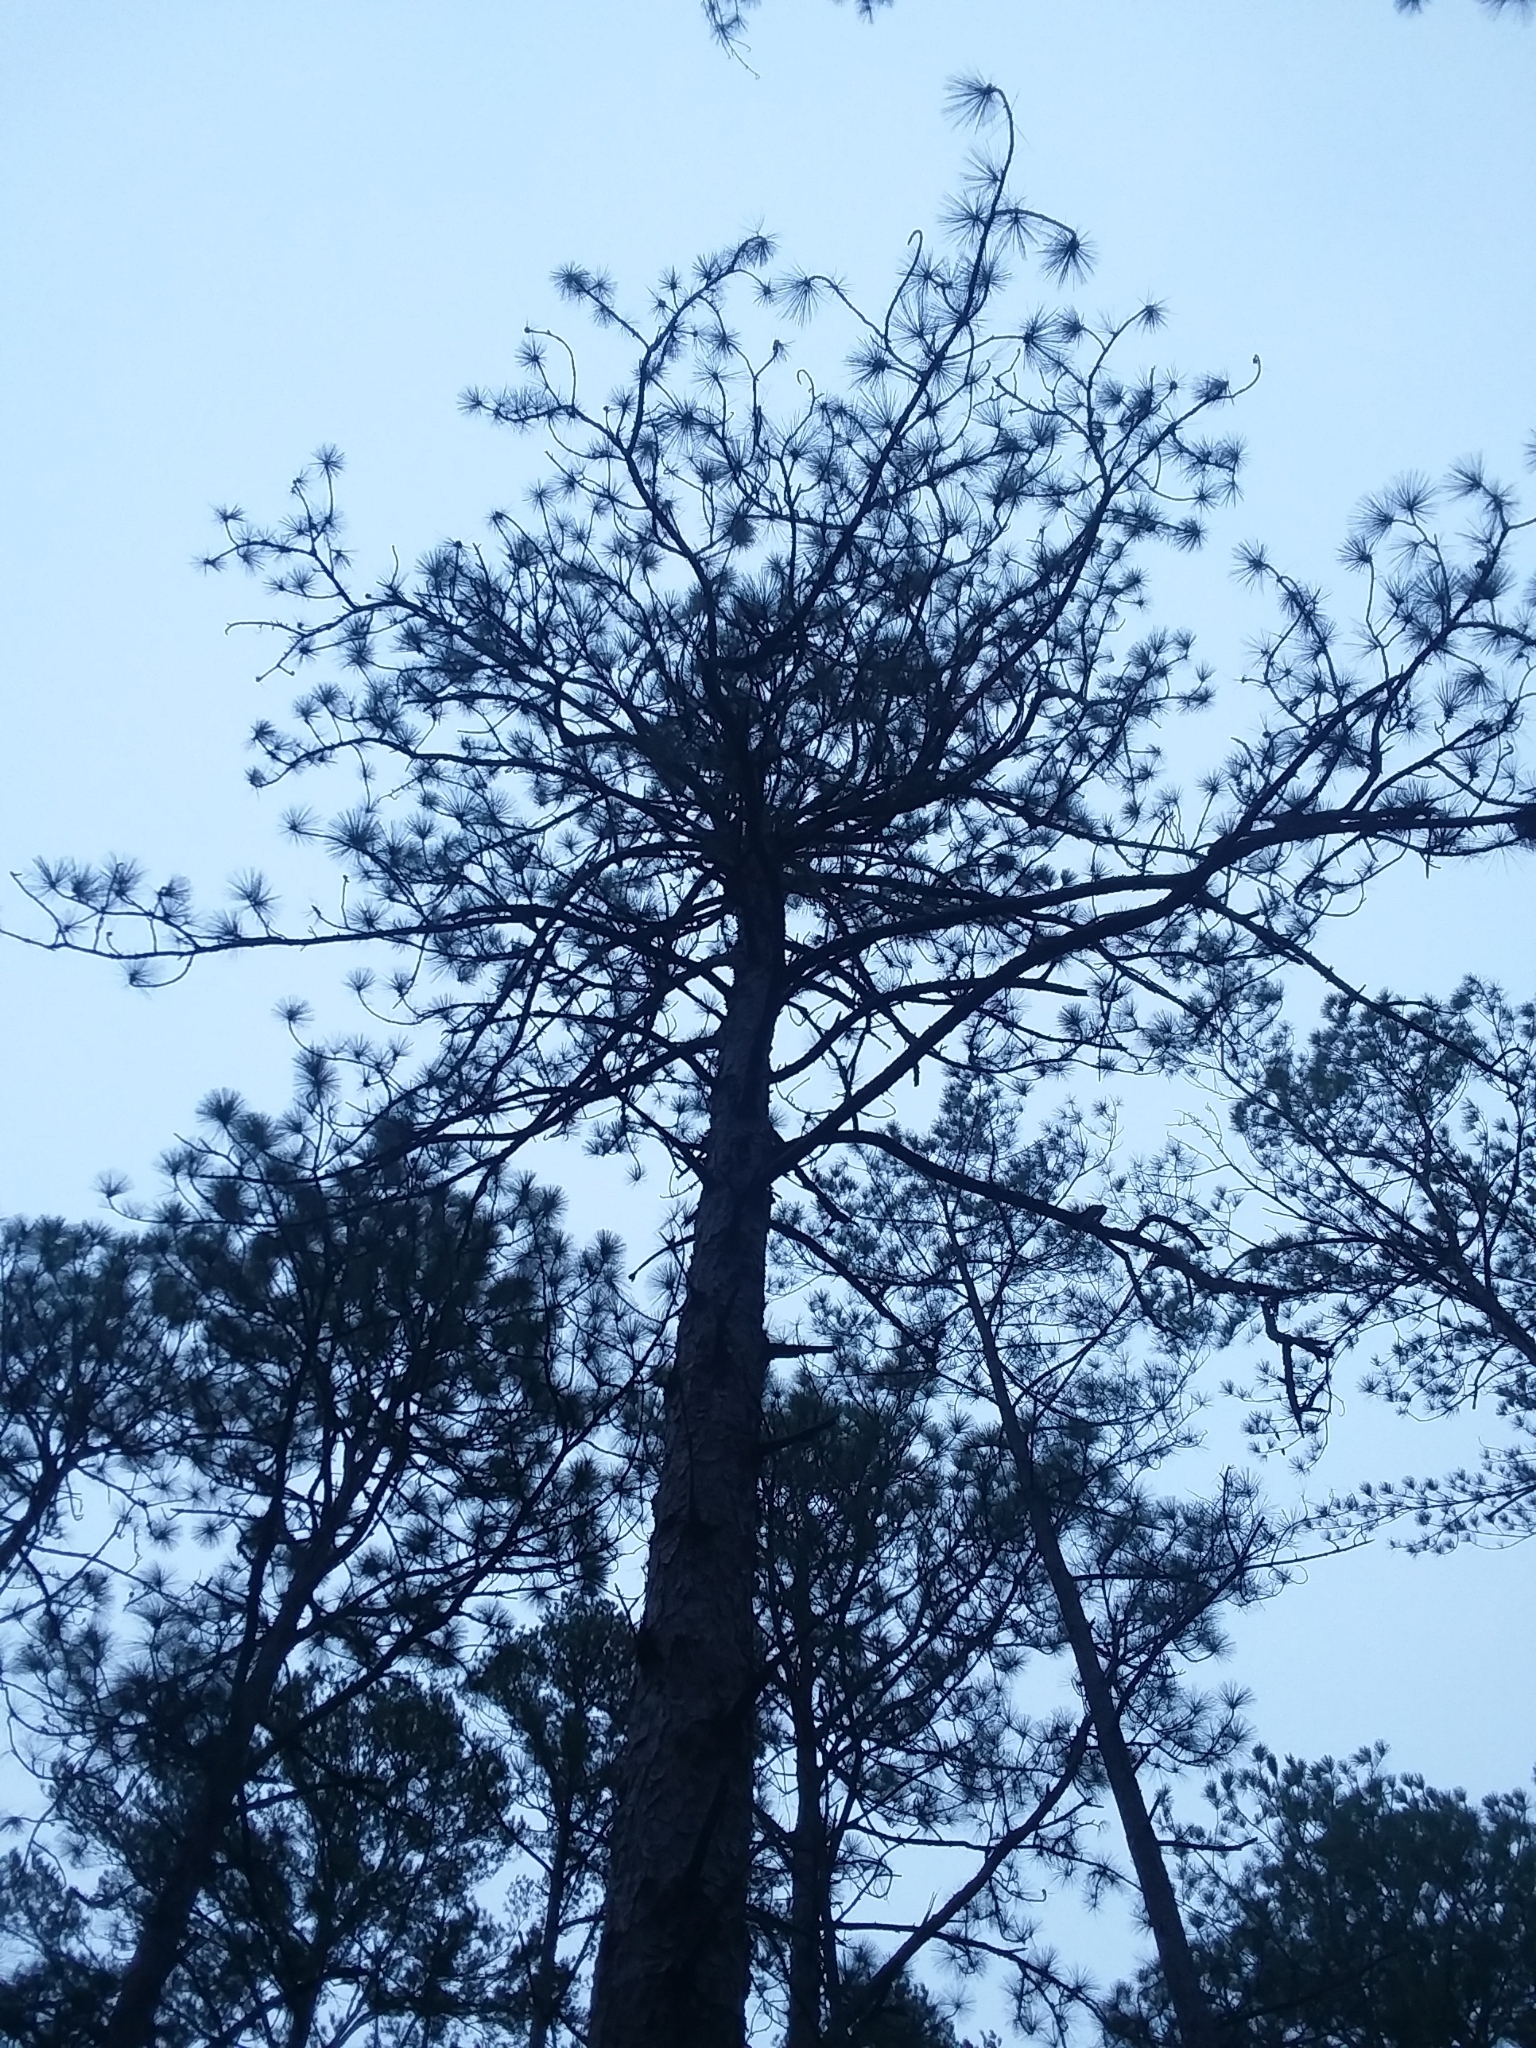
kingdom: Plantae
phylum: Tracheophyta
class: Pinopsida
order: Pinales
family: Pinaceae
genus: Pinus
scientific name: Pinus palustris
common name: Longleaf pine
